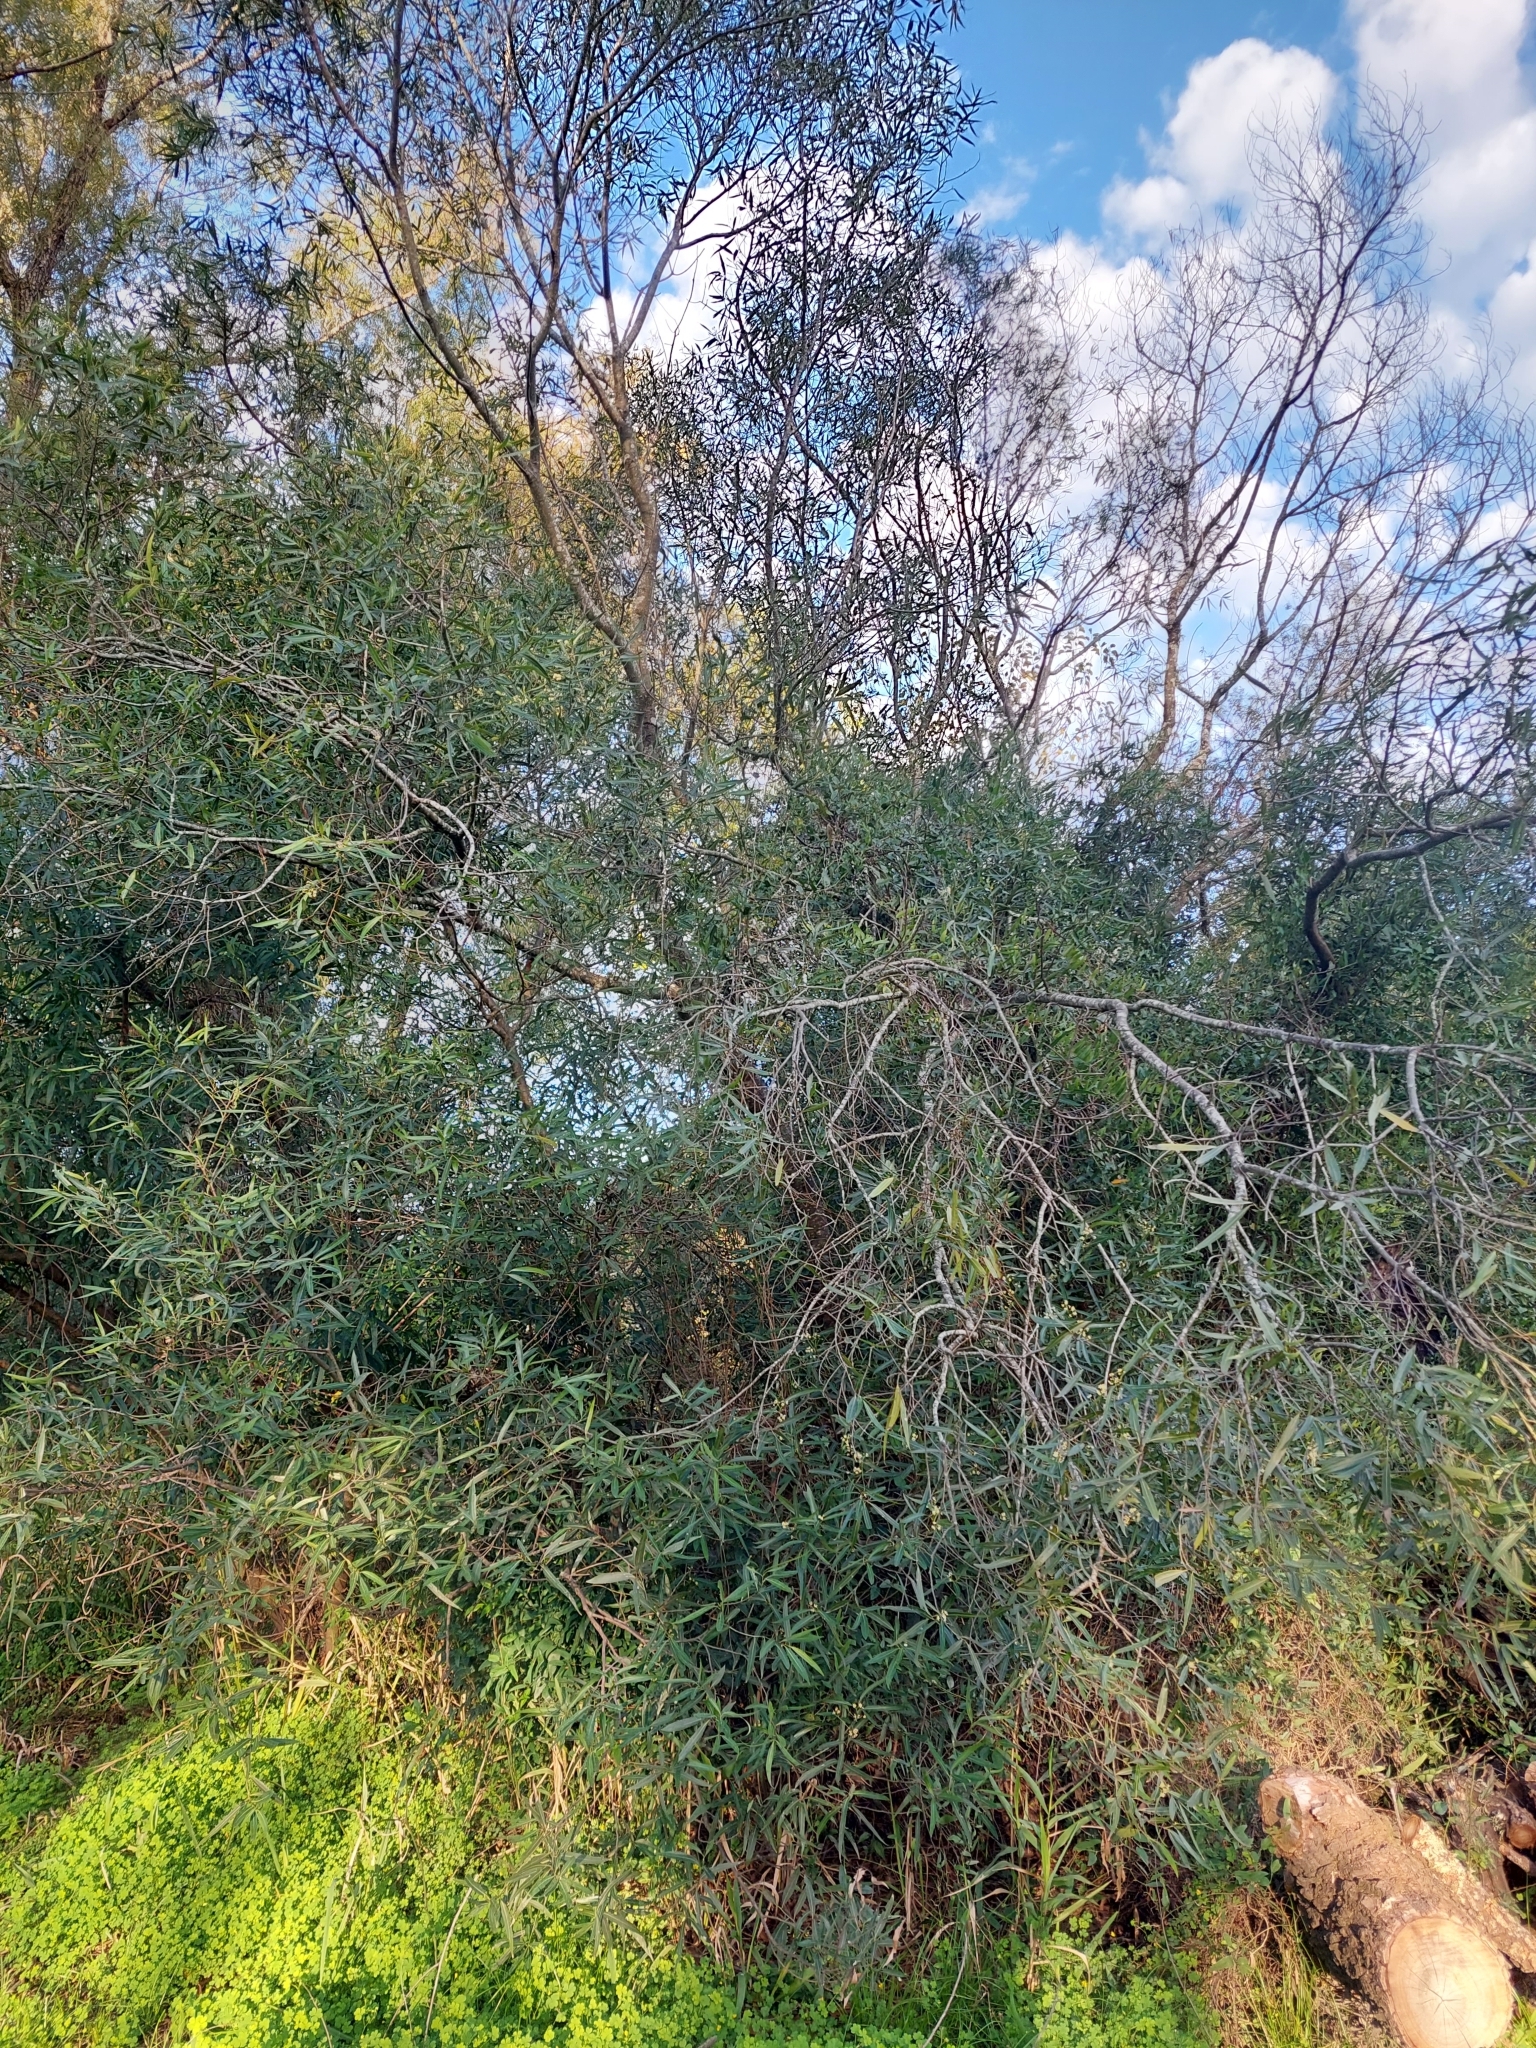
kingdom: Plantae
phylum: Tracheophyta
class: Magnoliopsida
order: Laurales
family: Lauraceae
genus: Nectandra
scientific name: Nectandra angustifolia
